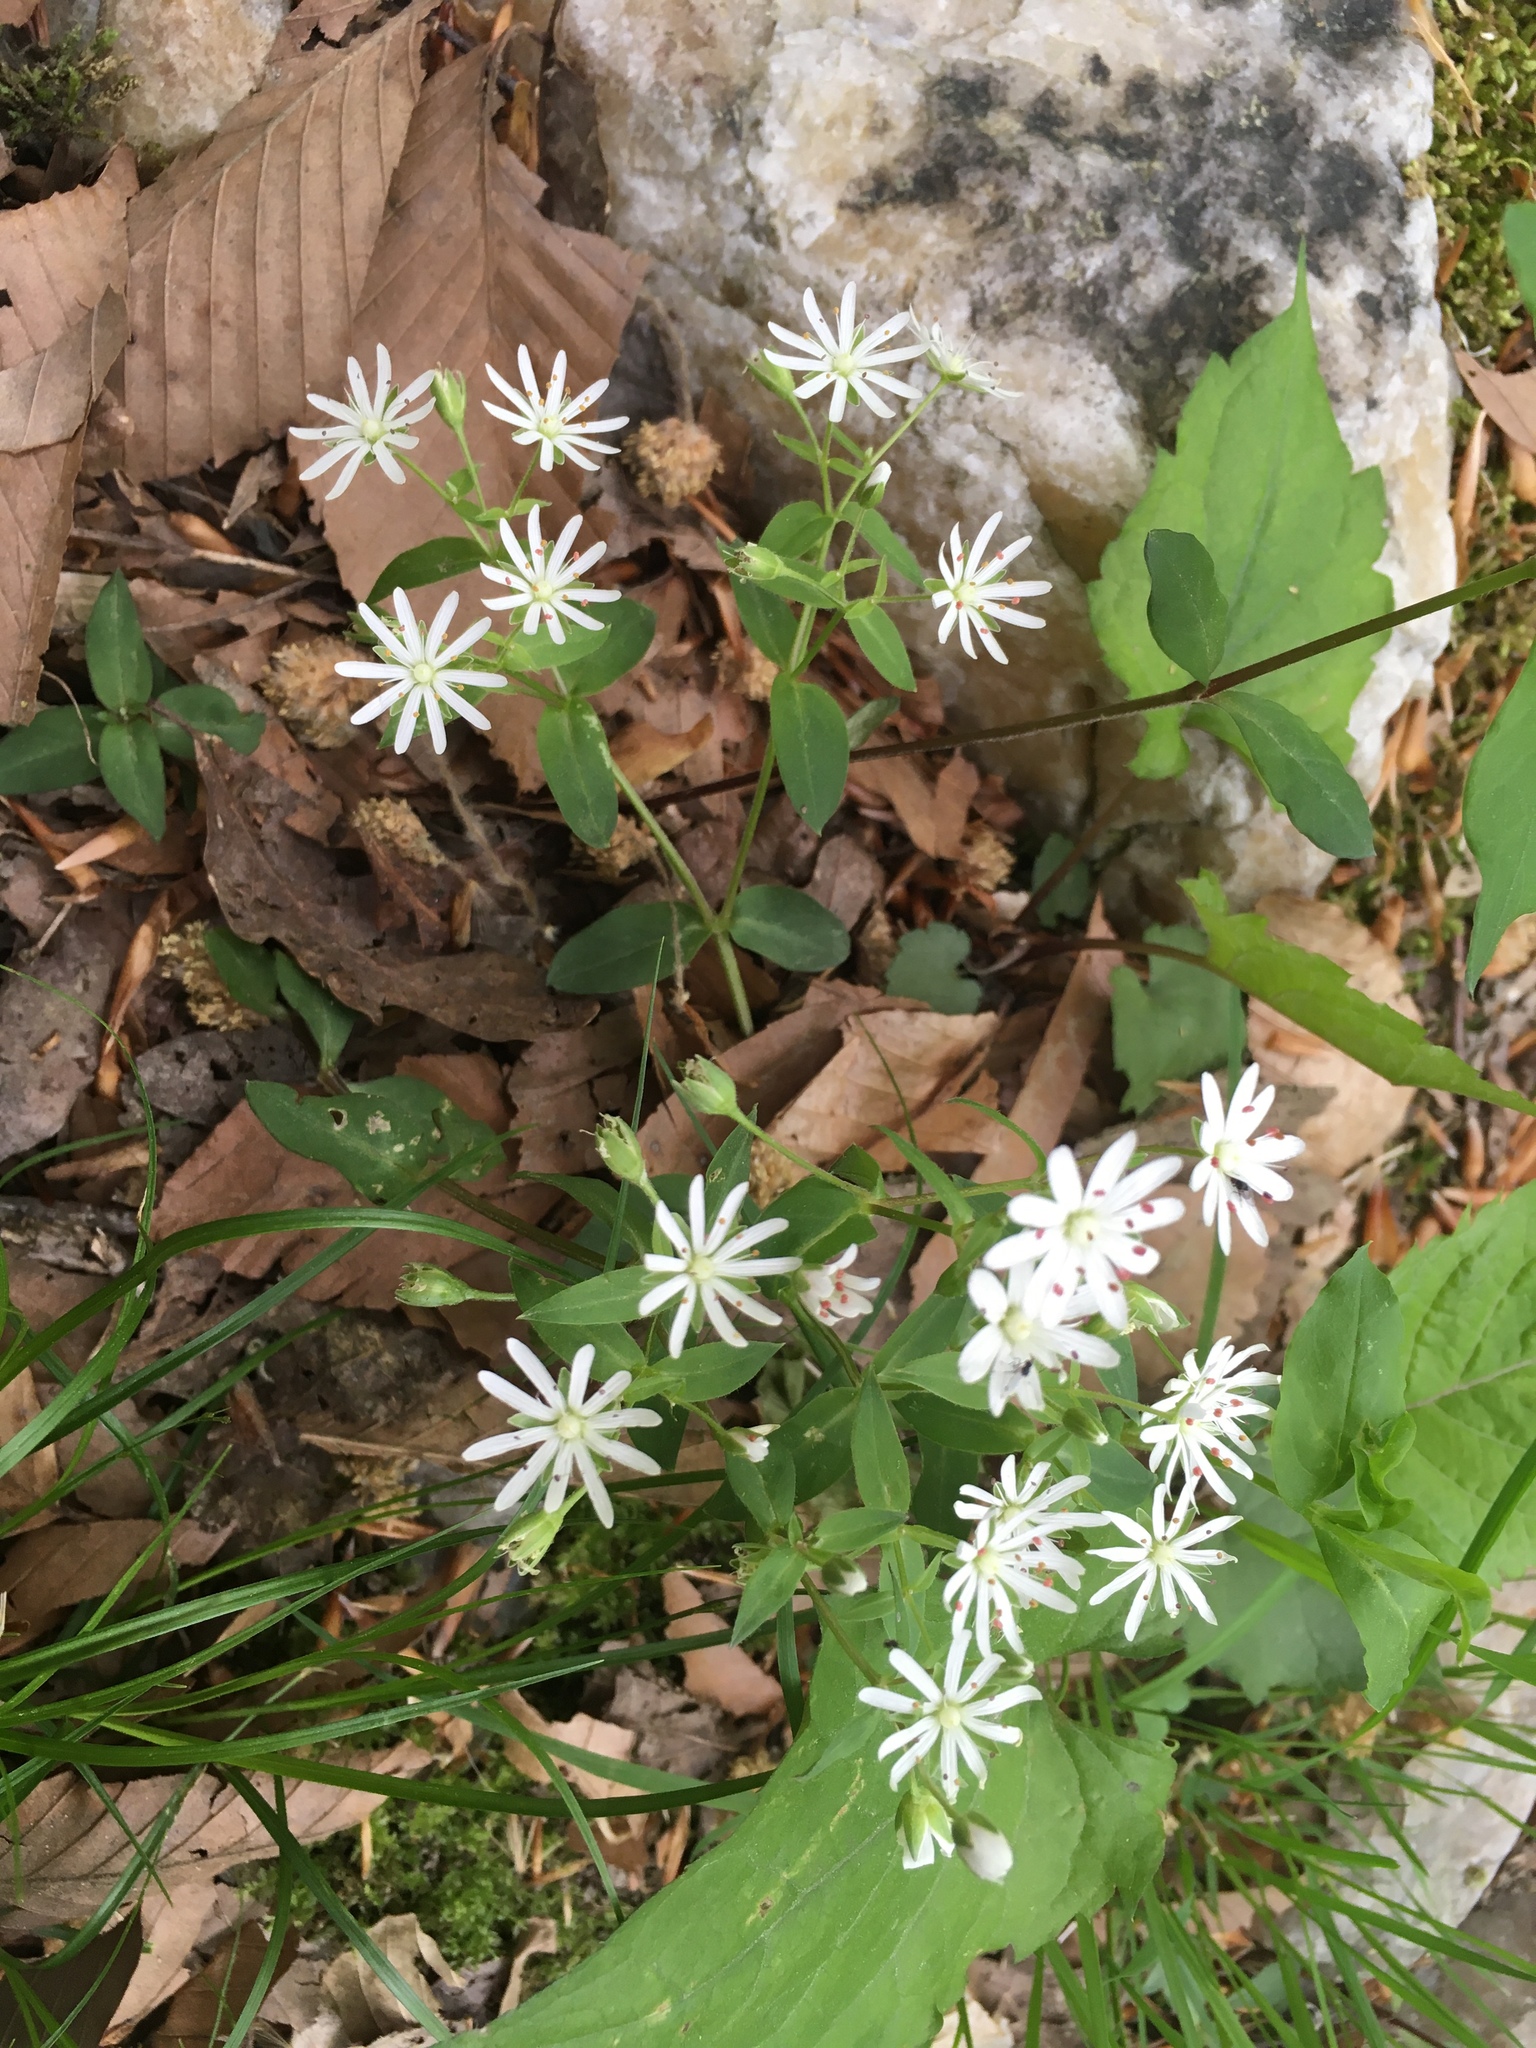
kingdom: Plantae
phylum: Tracheophyta
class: Magnoliopsida
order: Caryophyllales
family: Caryophyllaceae
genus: Stellaria
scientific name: Stellaria pubera
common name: Star chickweed
